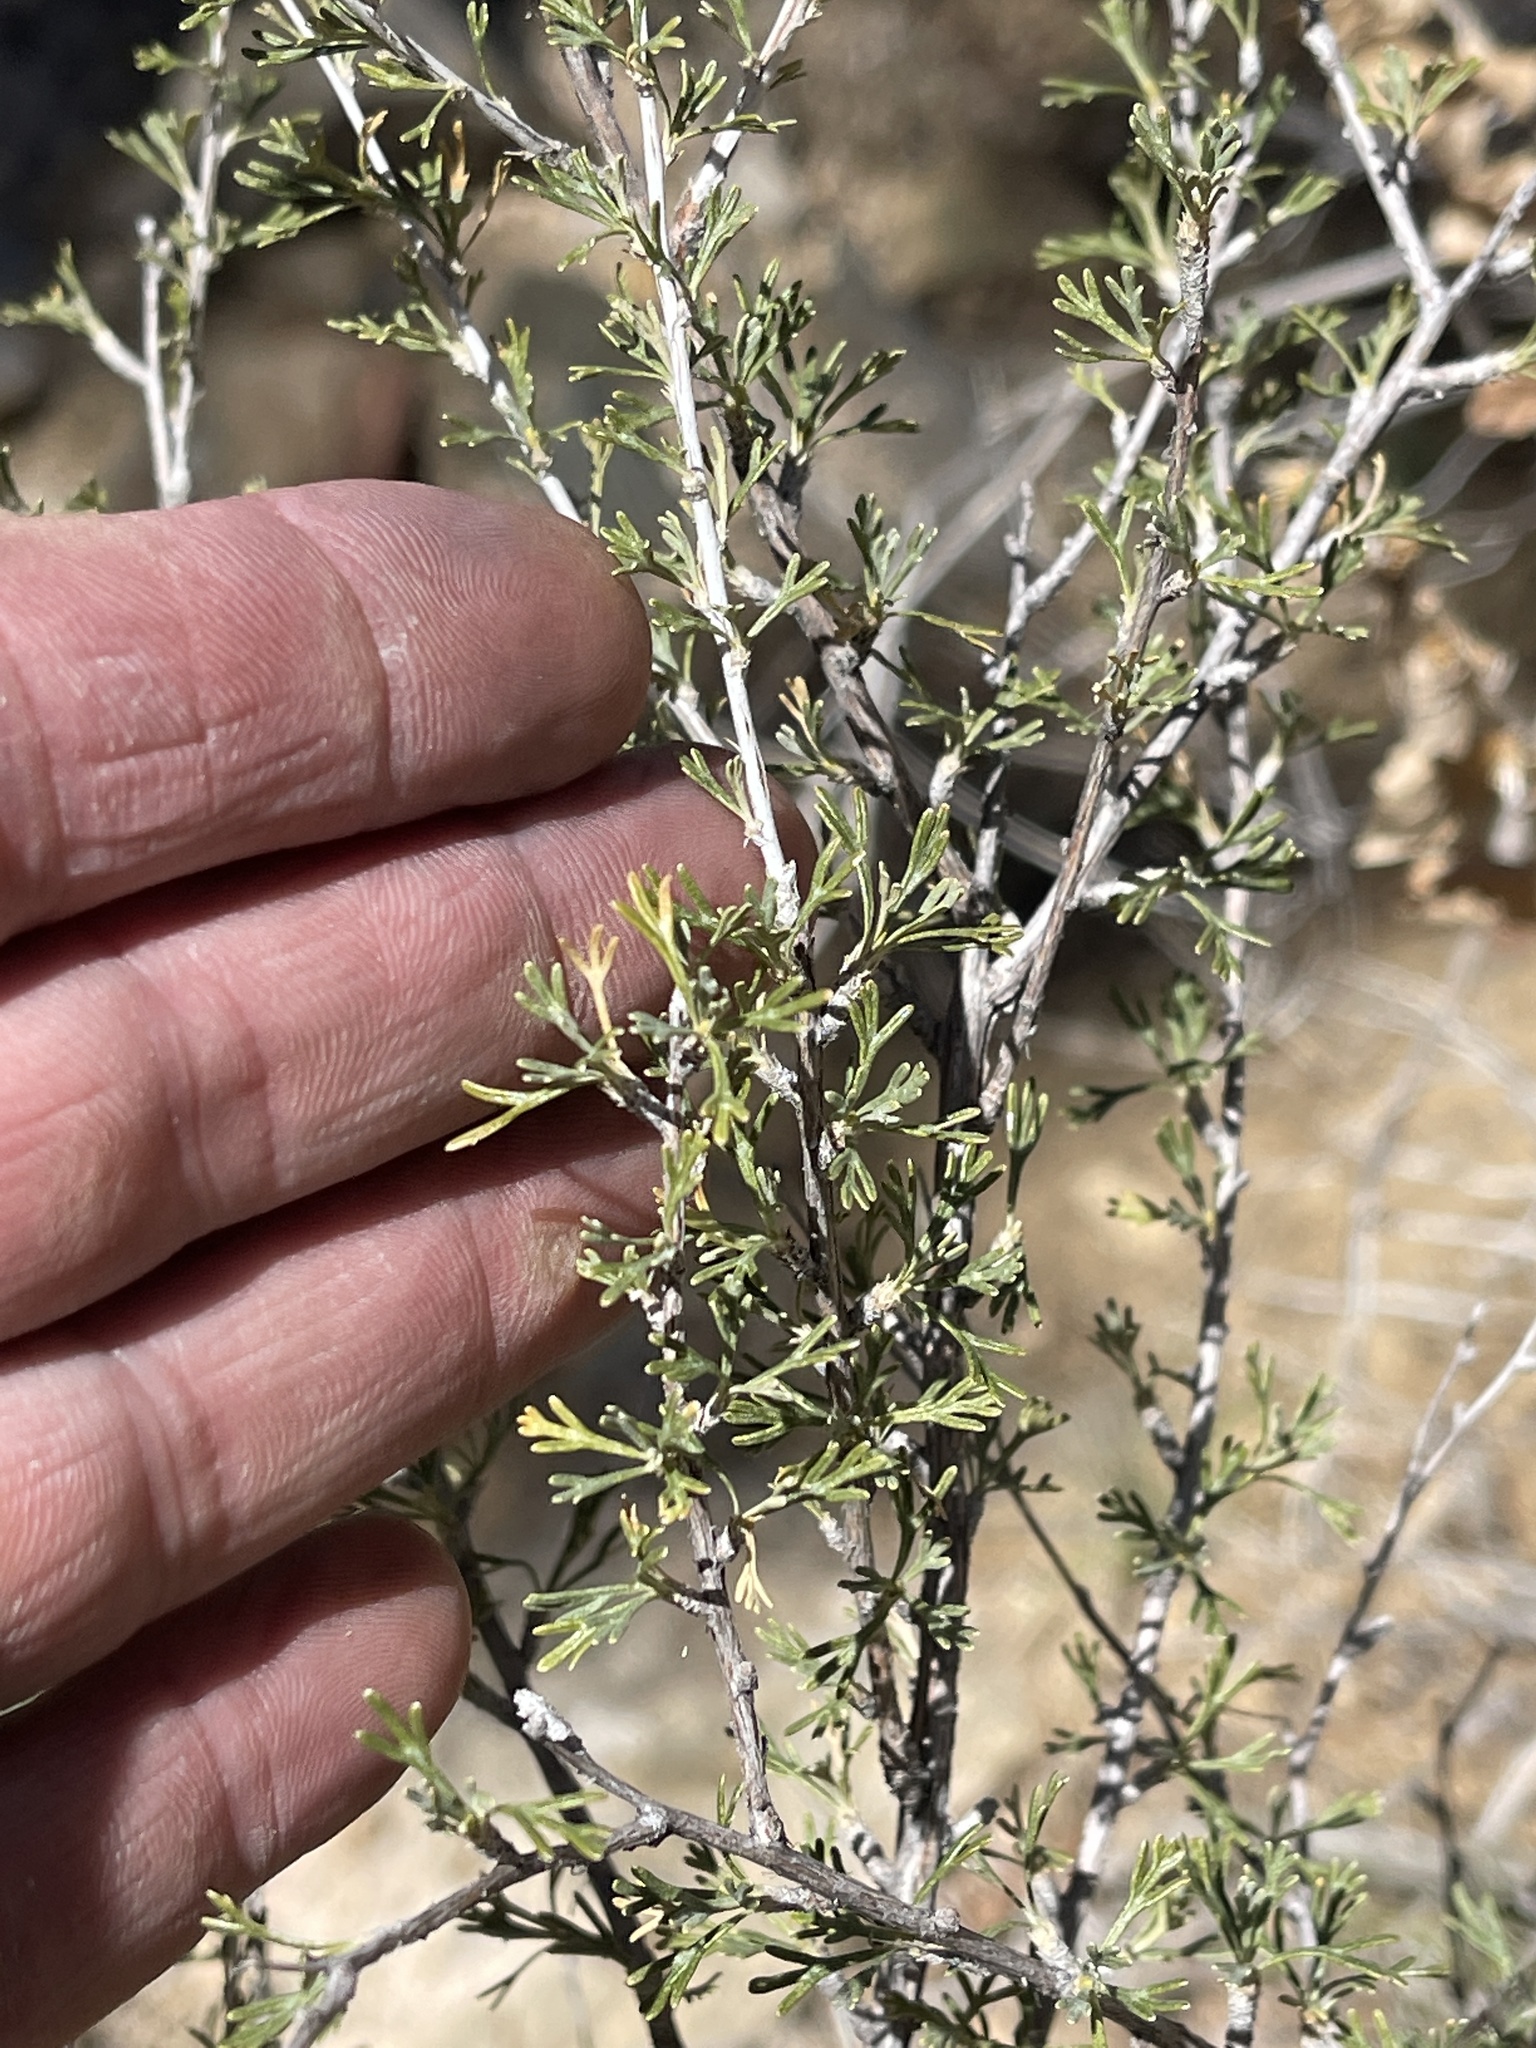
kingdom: Plantae
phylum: Tracheophyta
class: Magnoliopsida
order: Rosales
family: Rosaceae
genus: Fallugia
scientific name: Fallugia paradoxa
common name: Apache-plume
